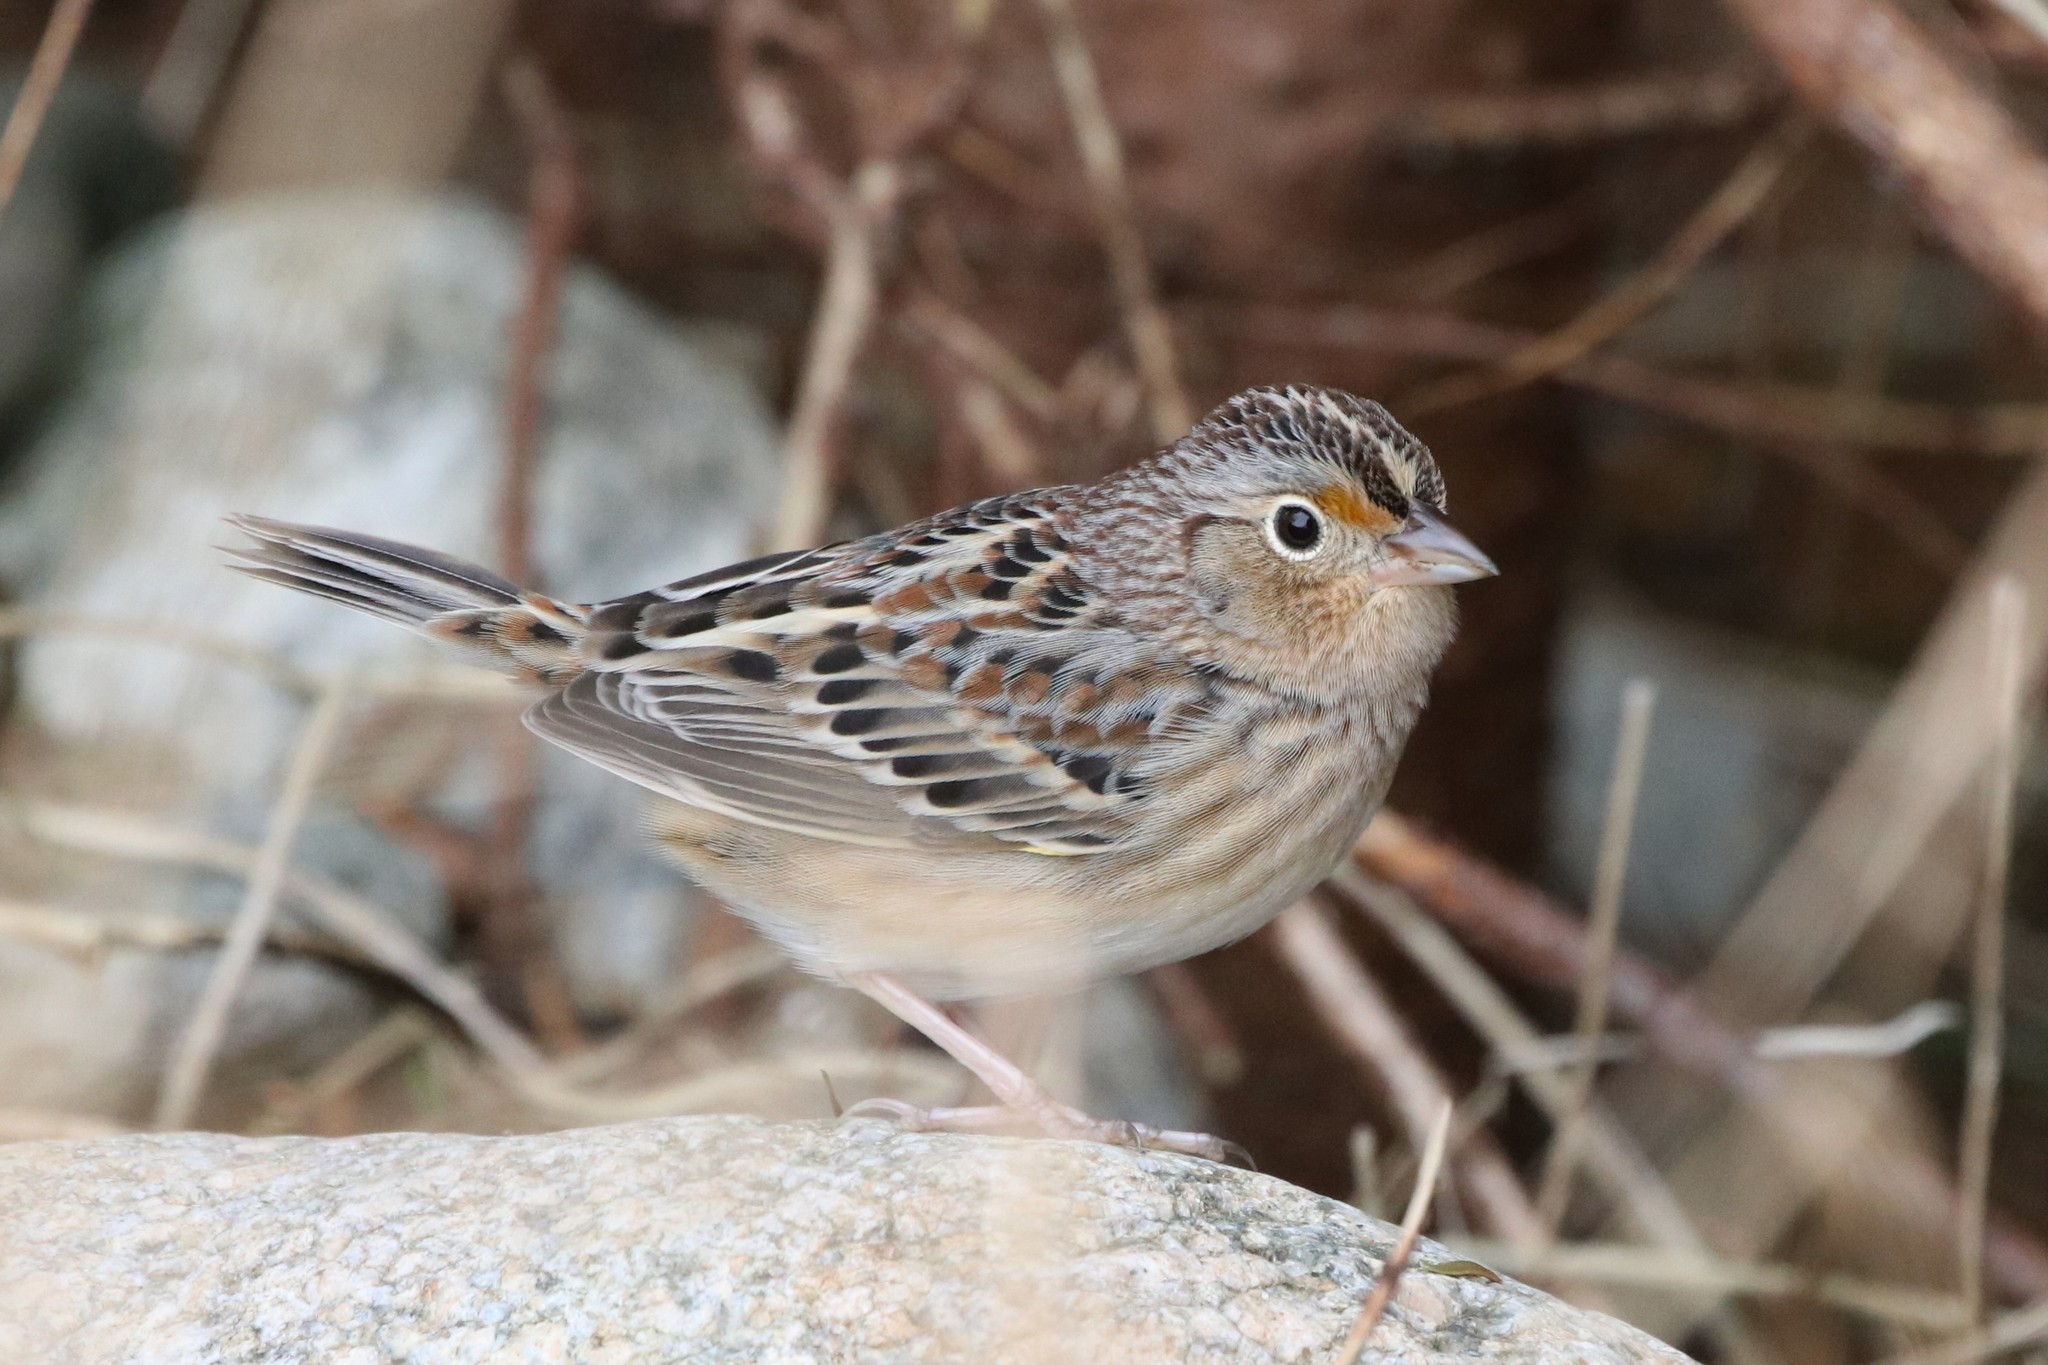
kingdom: Animalia
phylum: Chordata
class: Aves
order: Passeriformes
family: Passerellidae
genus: Ammodramus
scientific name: Ammodramus savannarum
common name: Grasshopper sparrow
